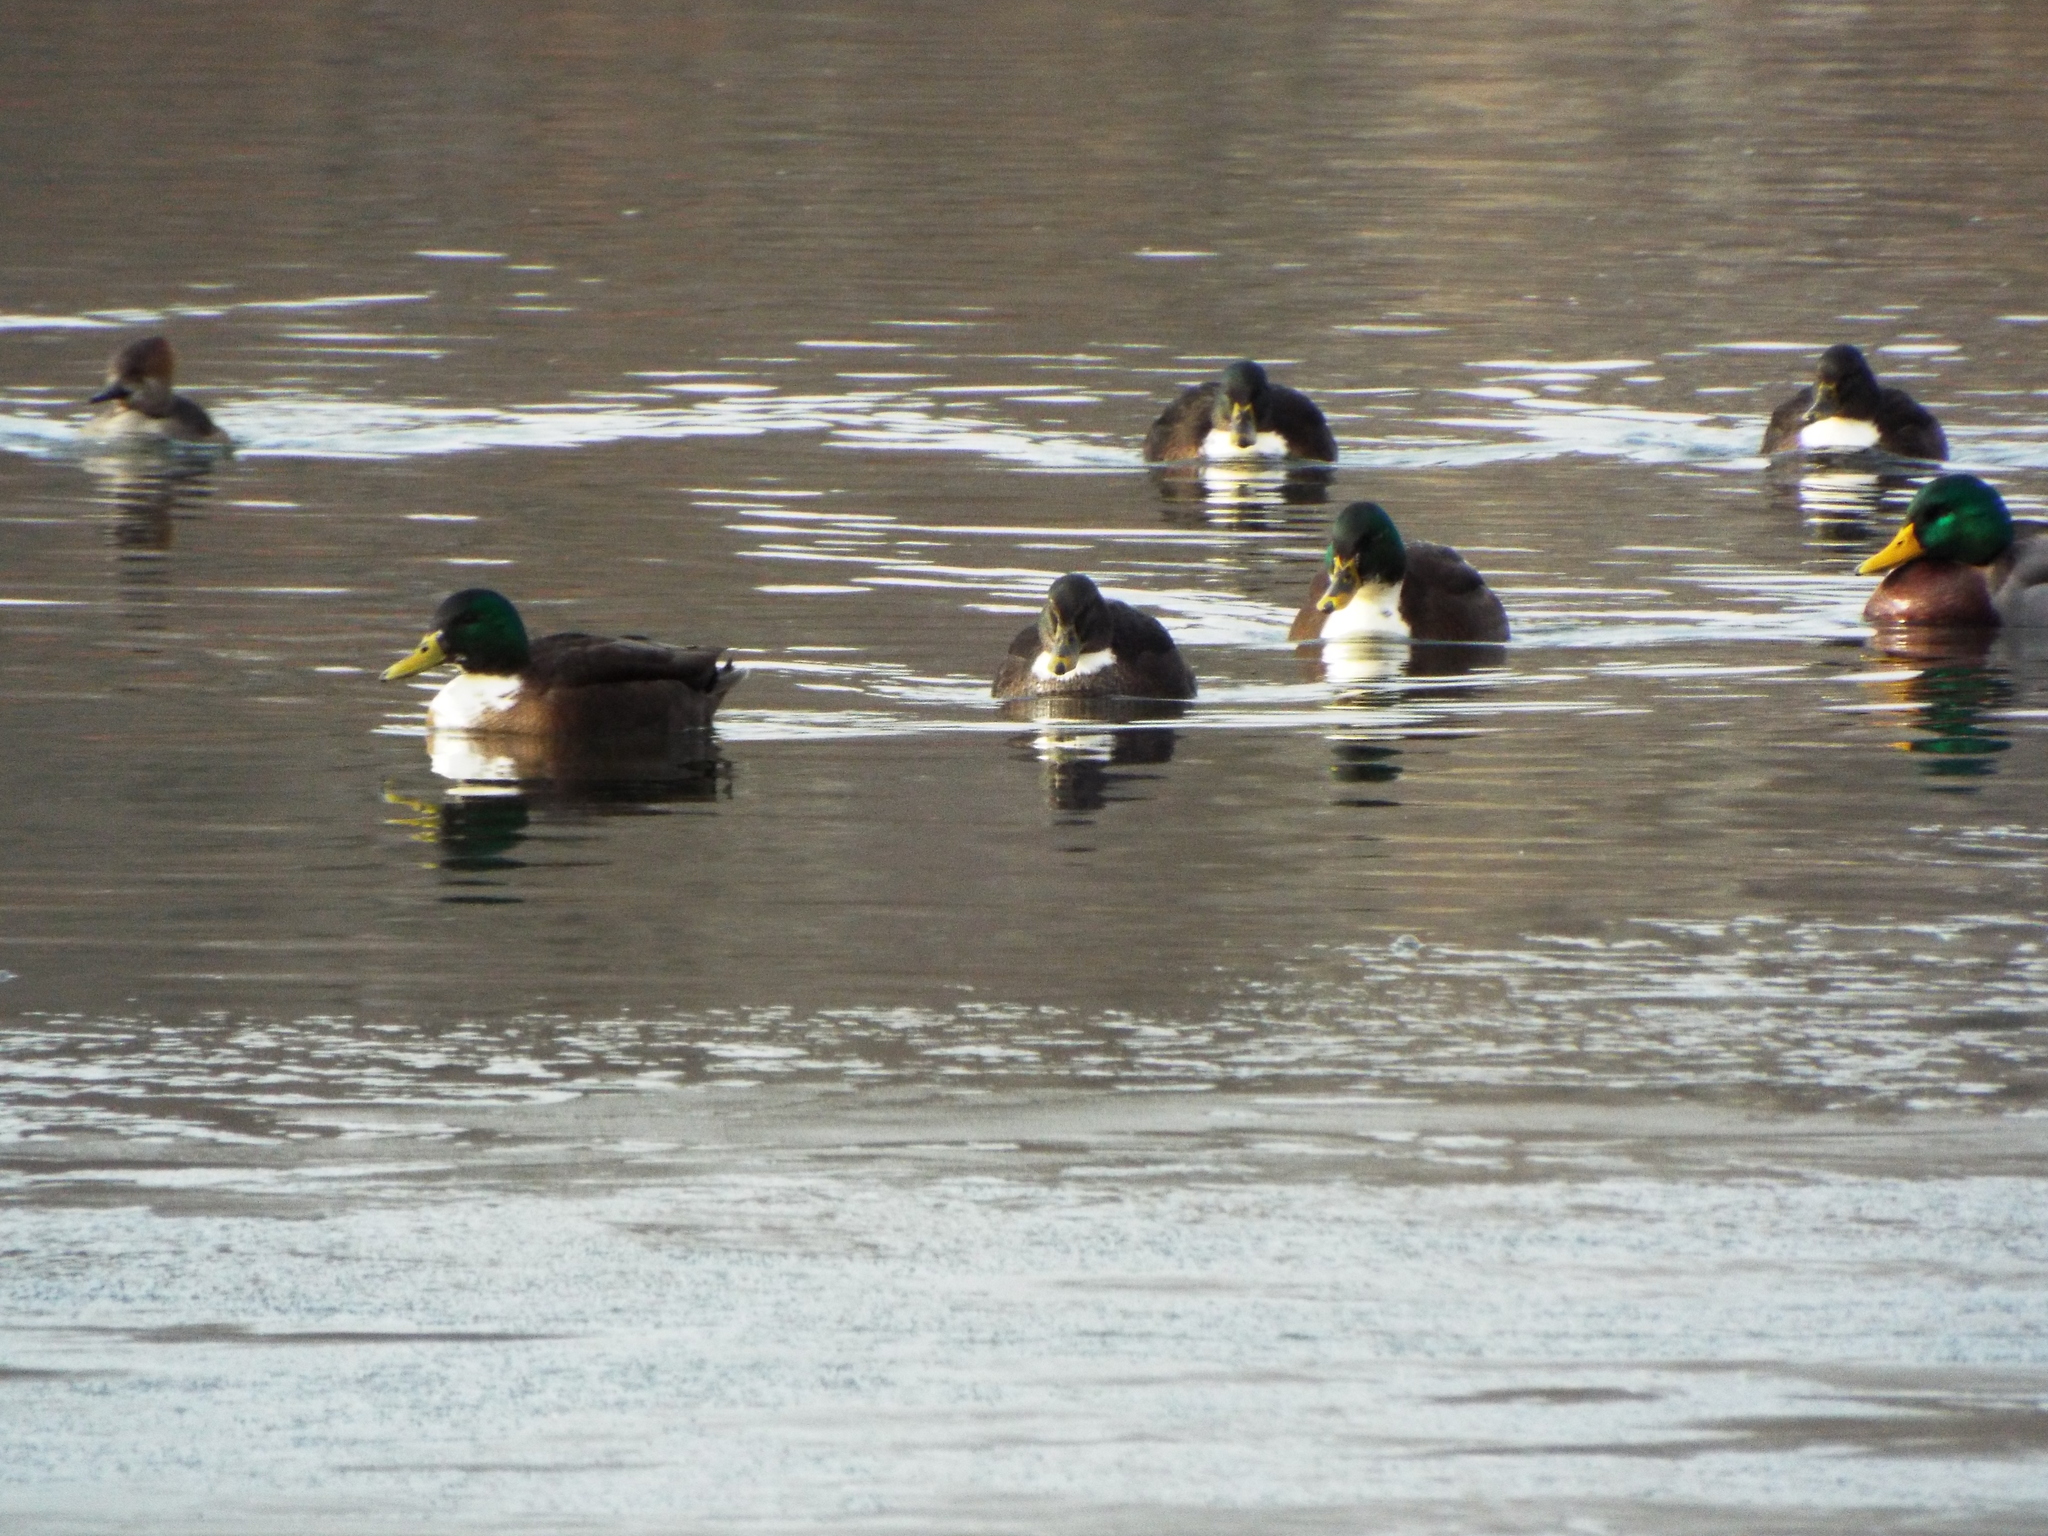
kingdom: Animalia
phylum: Chordata
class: Aves
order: Anseriformes
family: Anatidae
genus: Anas
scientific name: Anas platyrhynchos
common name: Mallard
